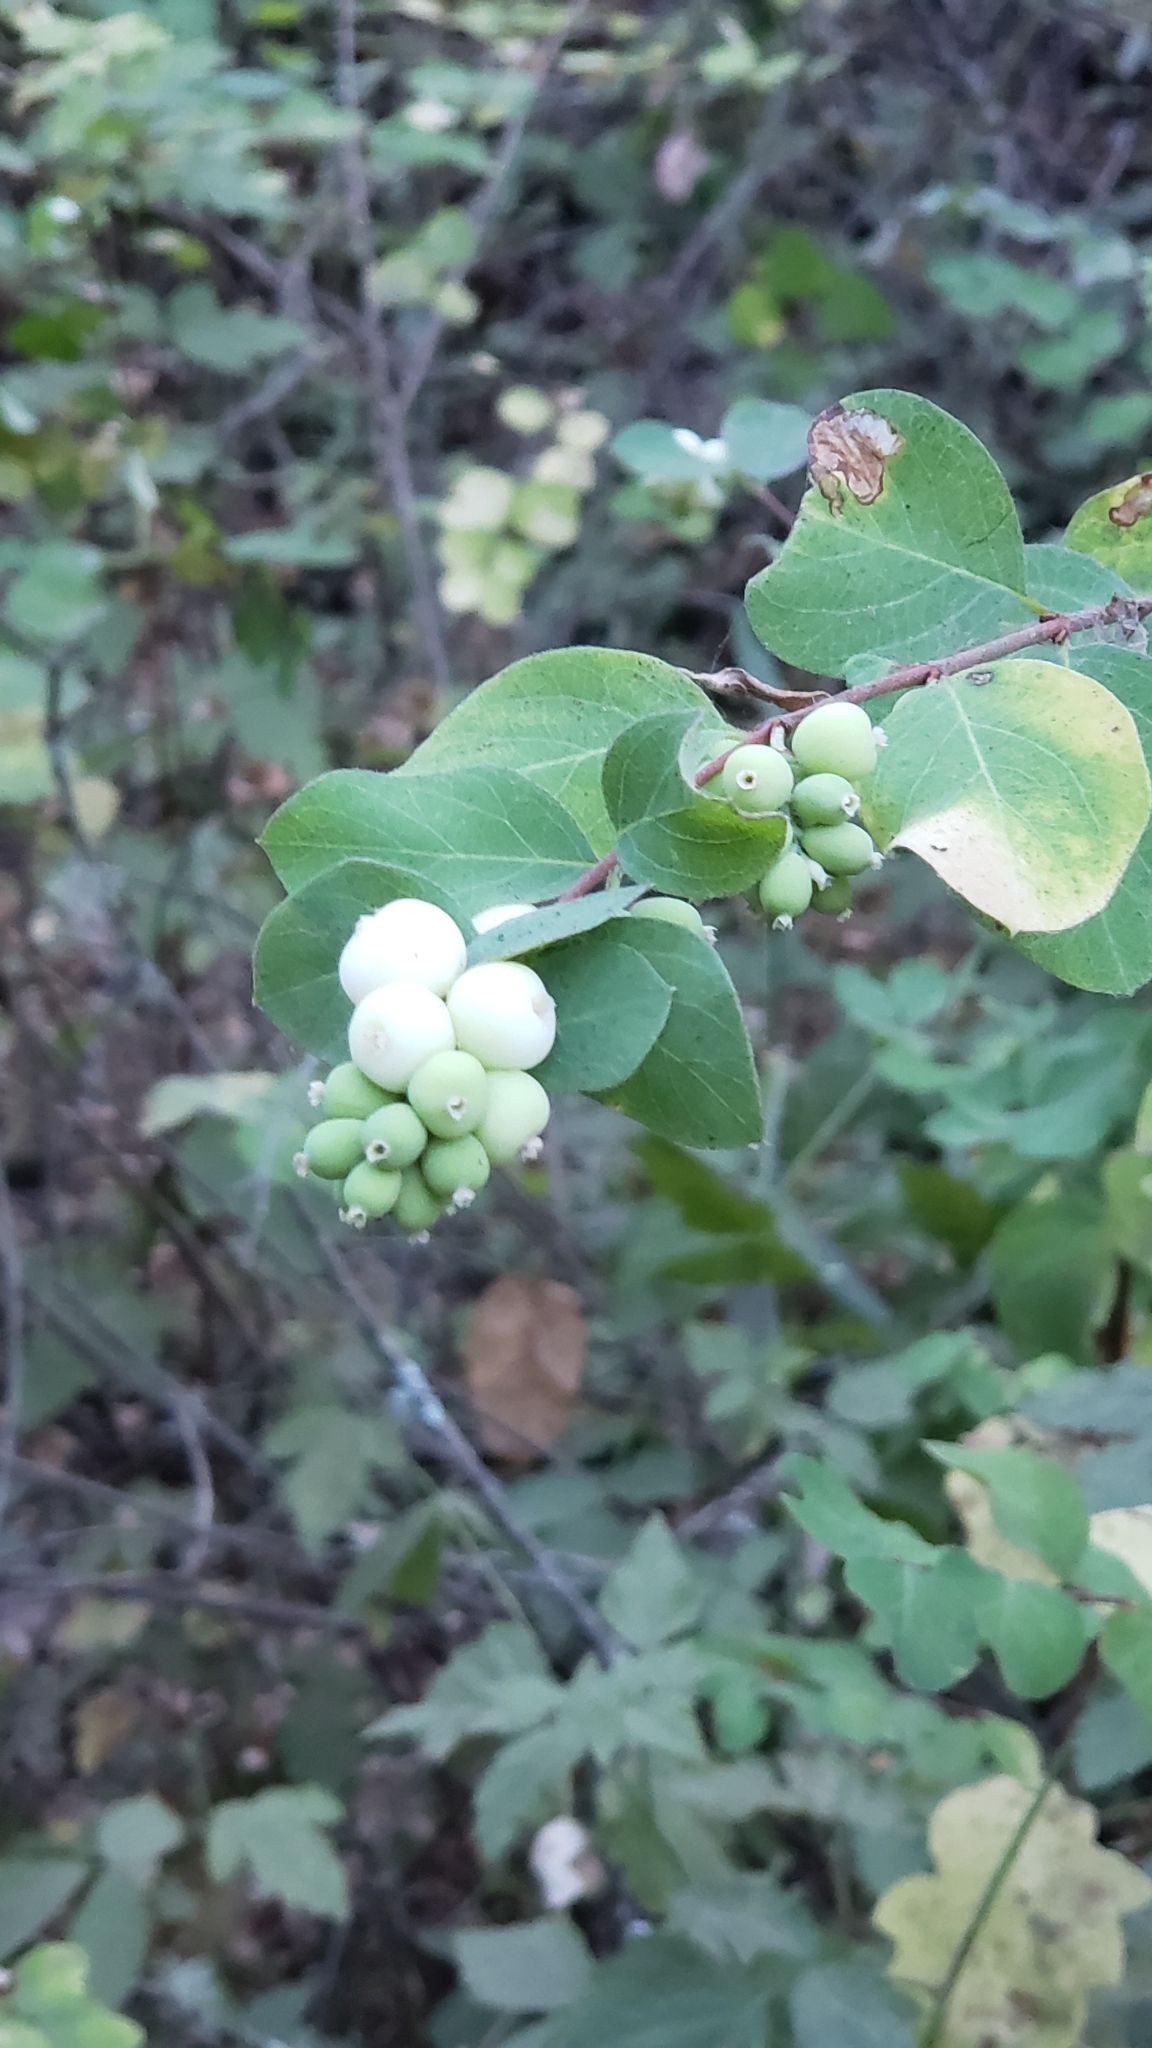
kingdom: Plantae
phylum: Tracheophyta
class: Magnoliopsida
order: Dipsacales
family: Caprifoliaceae
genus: Symphoricarpos
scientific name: Symphoricarpos albus
